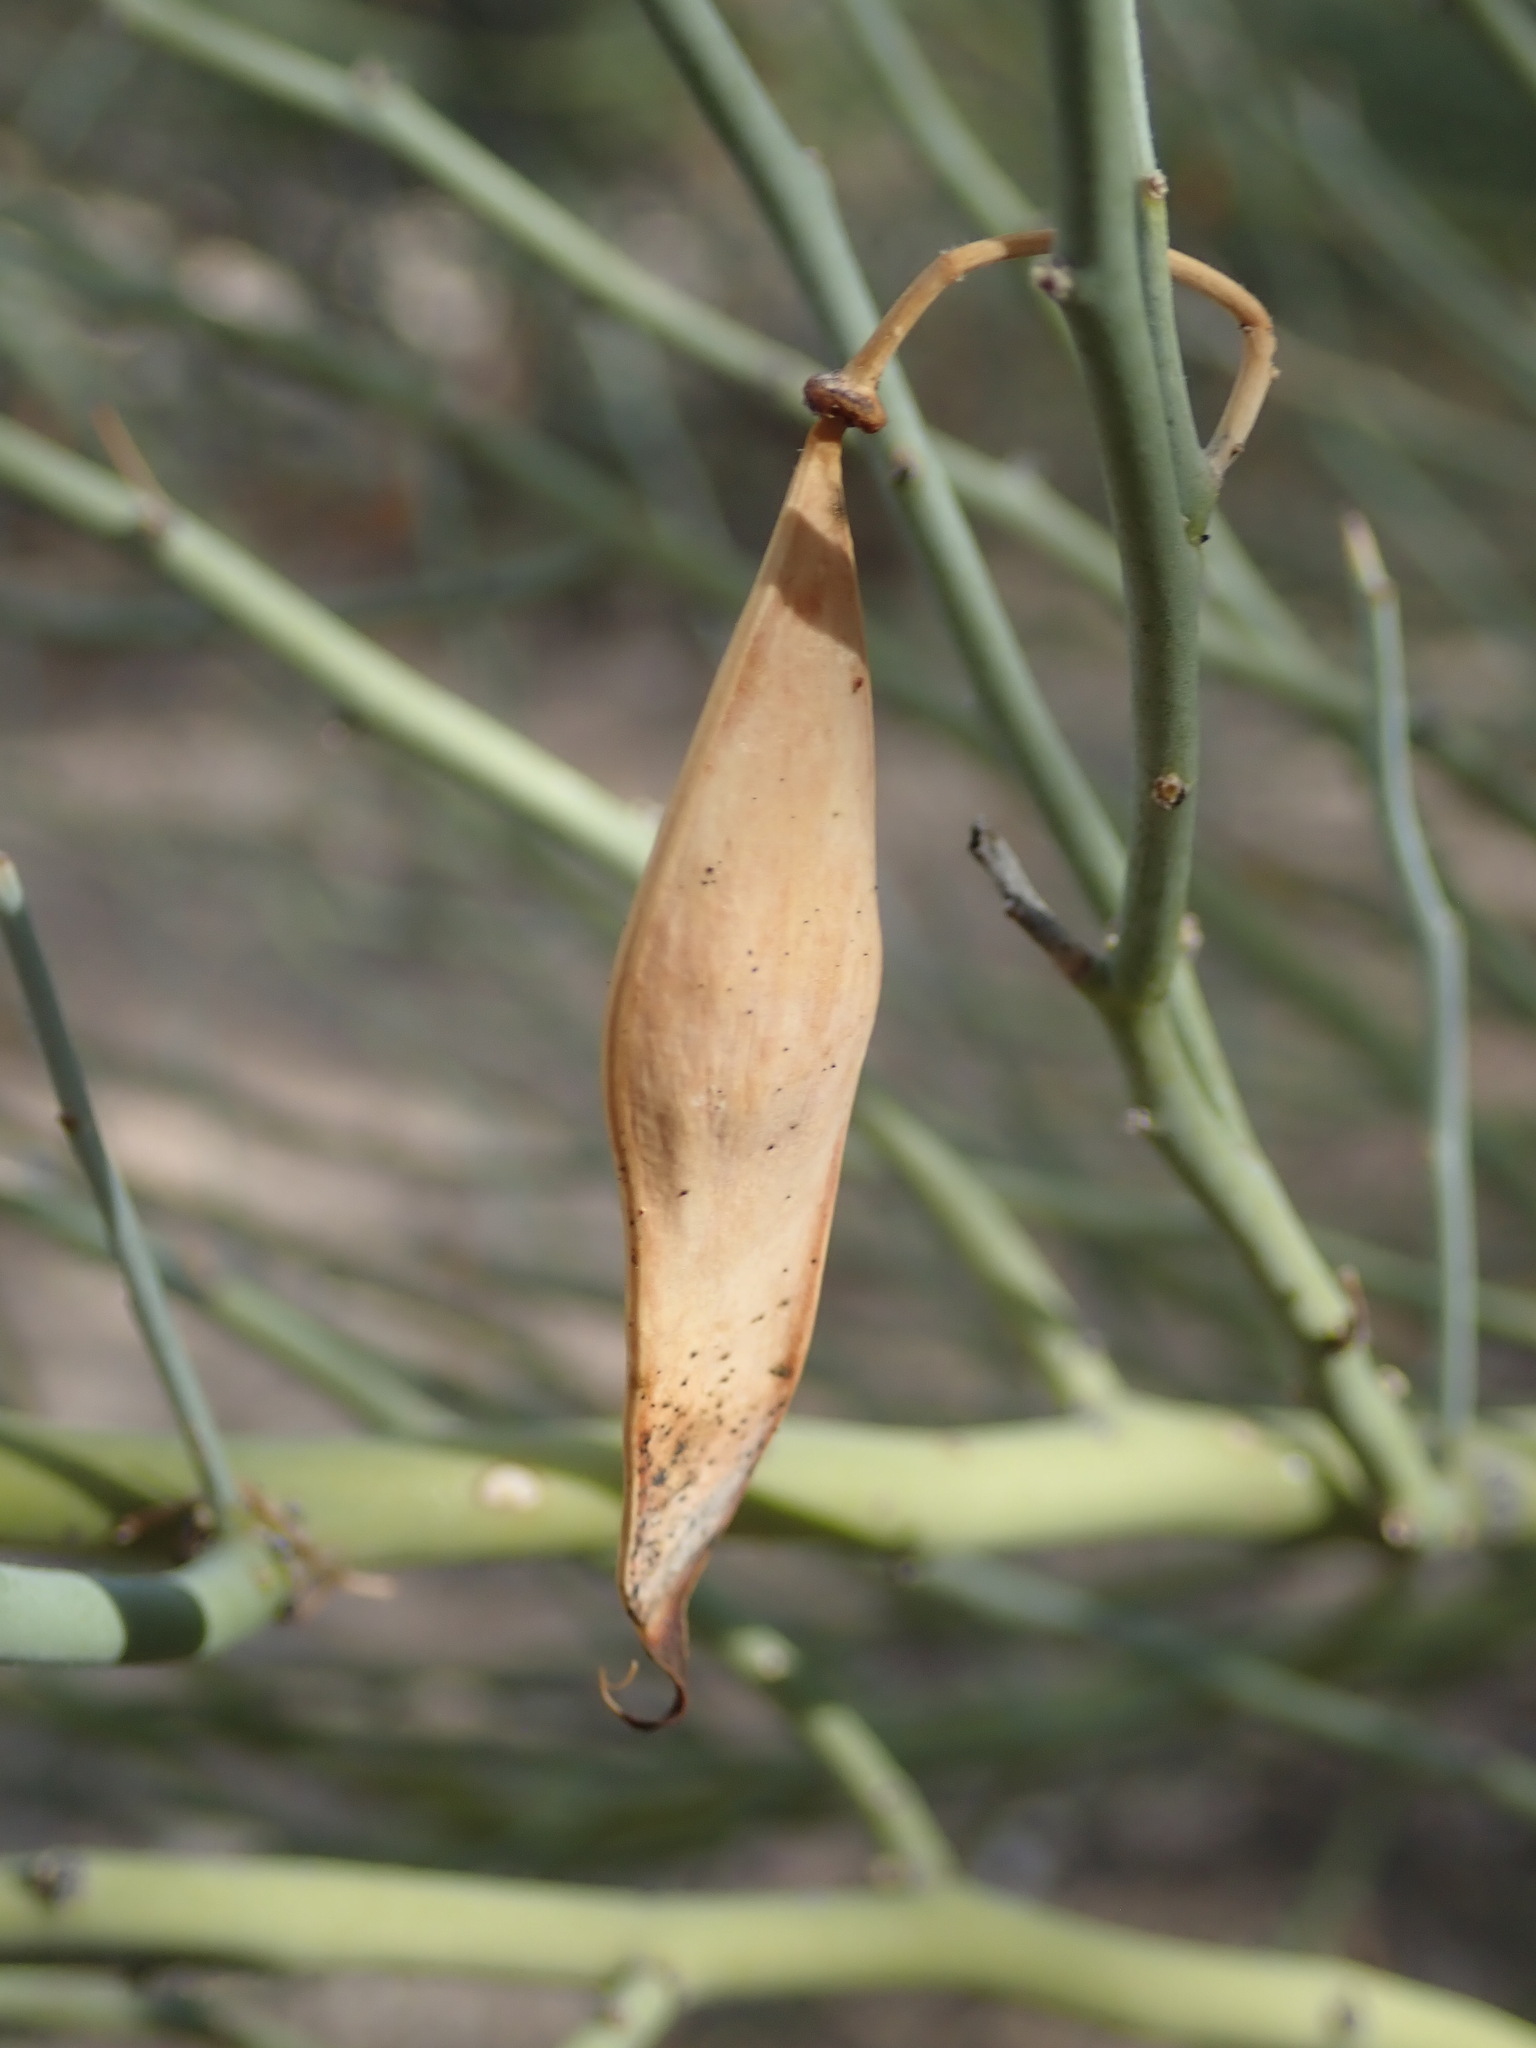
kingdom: Plantae
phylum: Tracheophyta
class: Magnoliopsida
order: Fabales
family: Fabaceae
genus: Parkinsonia
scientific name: Parkinsonia florida
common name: Blue paloverde
